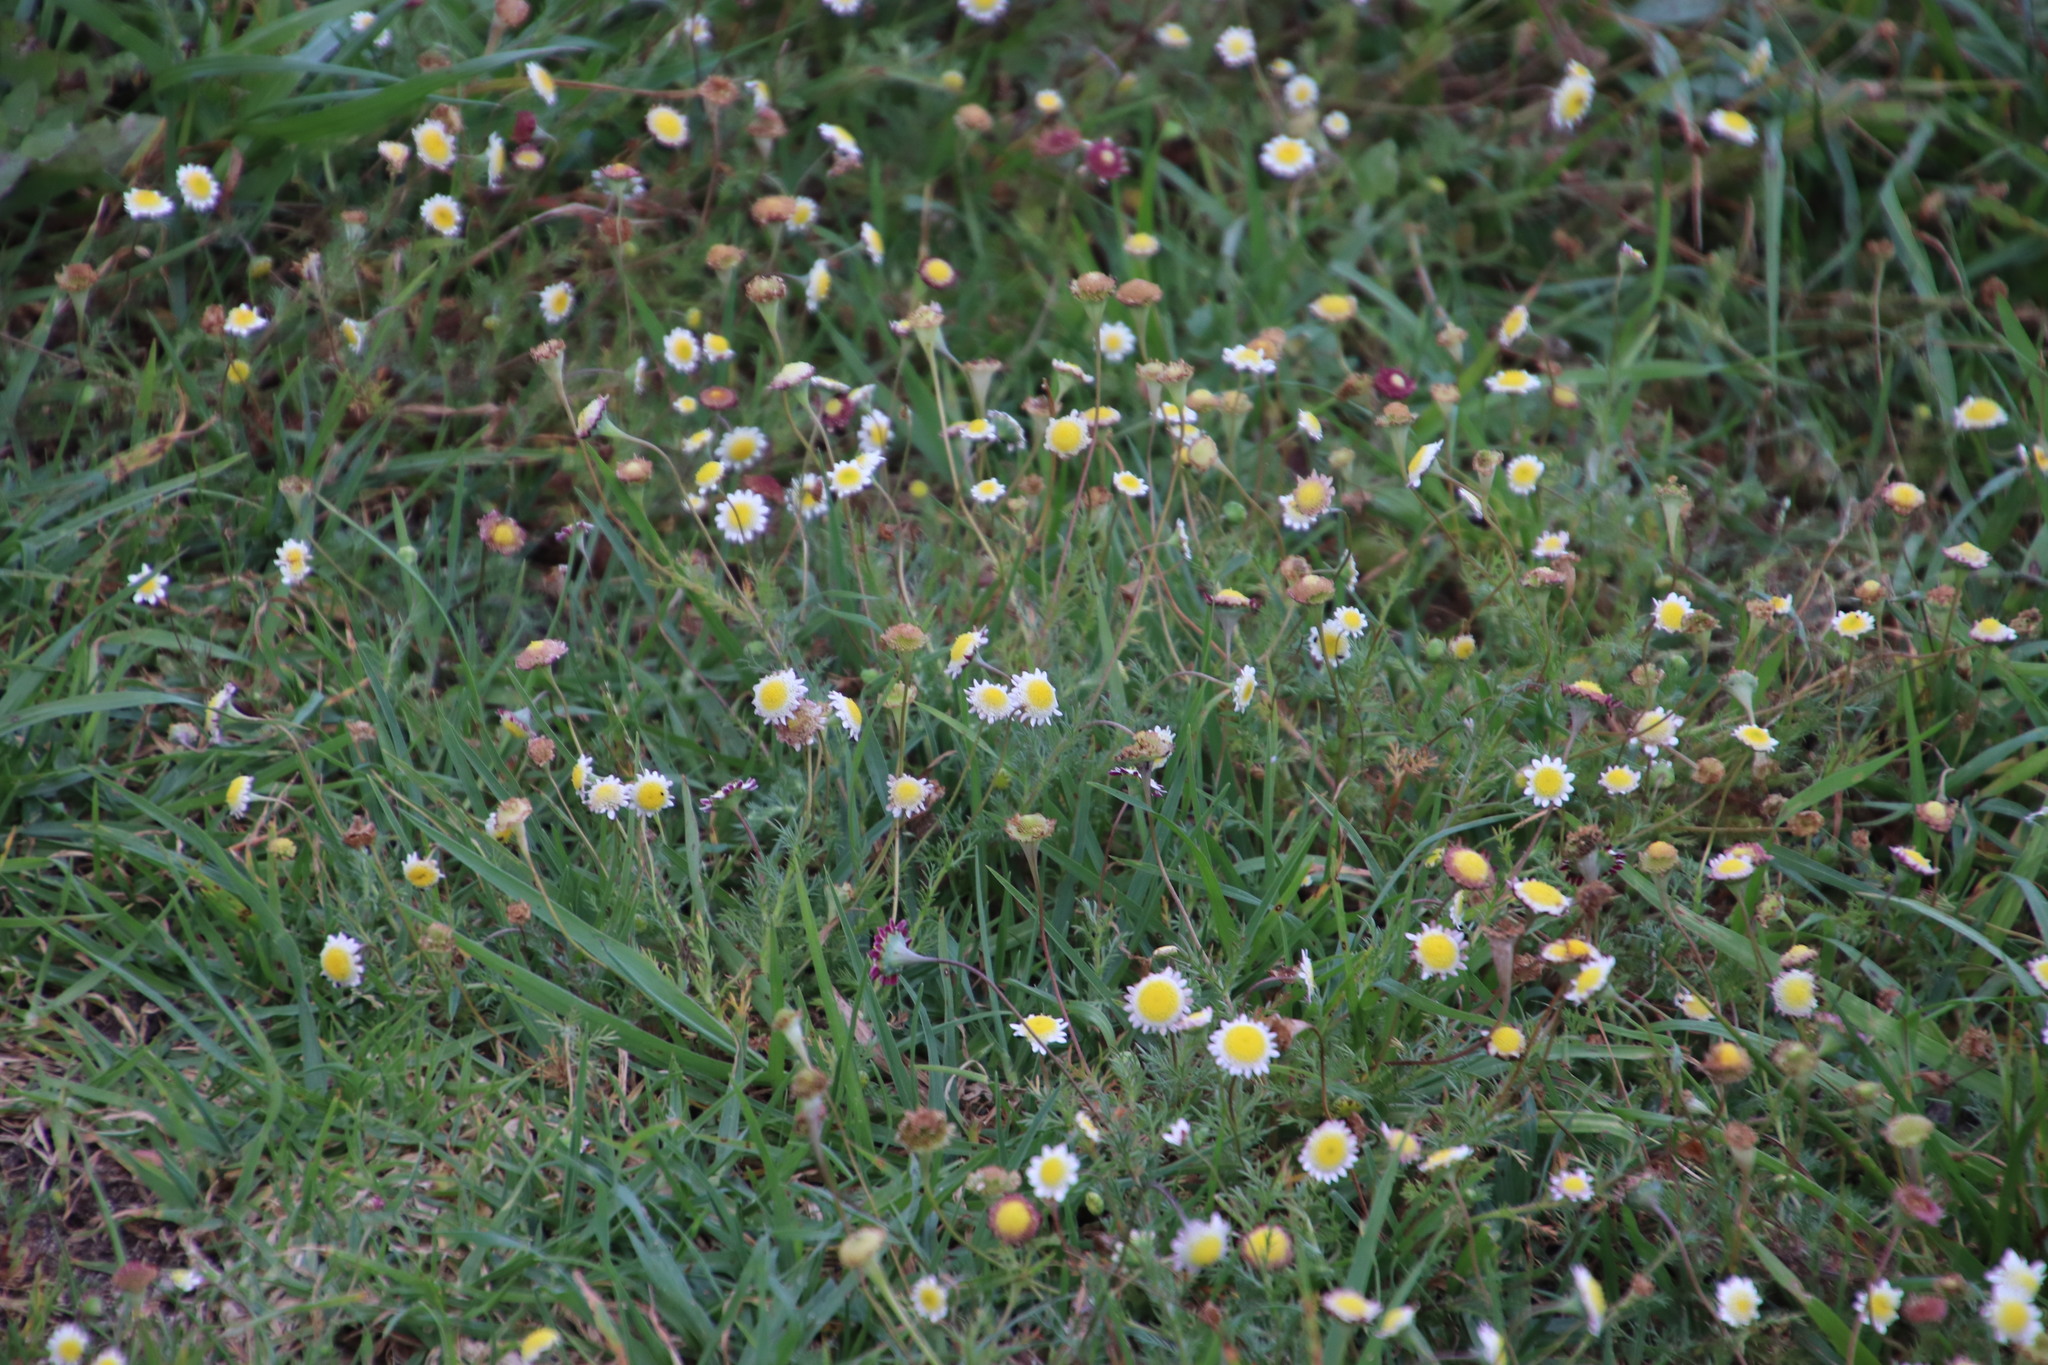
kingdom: Plantae
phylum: Tracheophyta
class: Magnoliopsida
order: Asterales
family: Asteraceae
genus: Cotula
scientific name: Cotula turbinata
